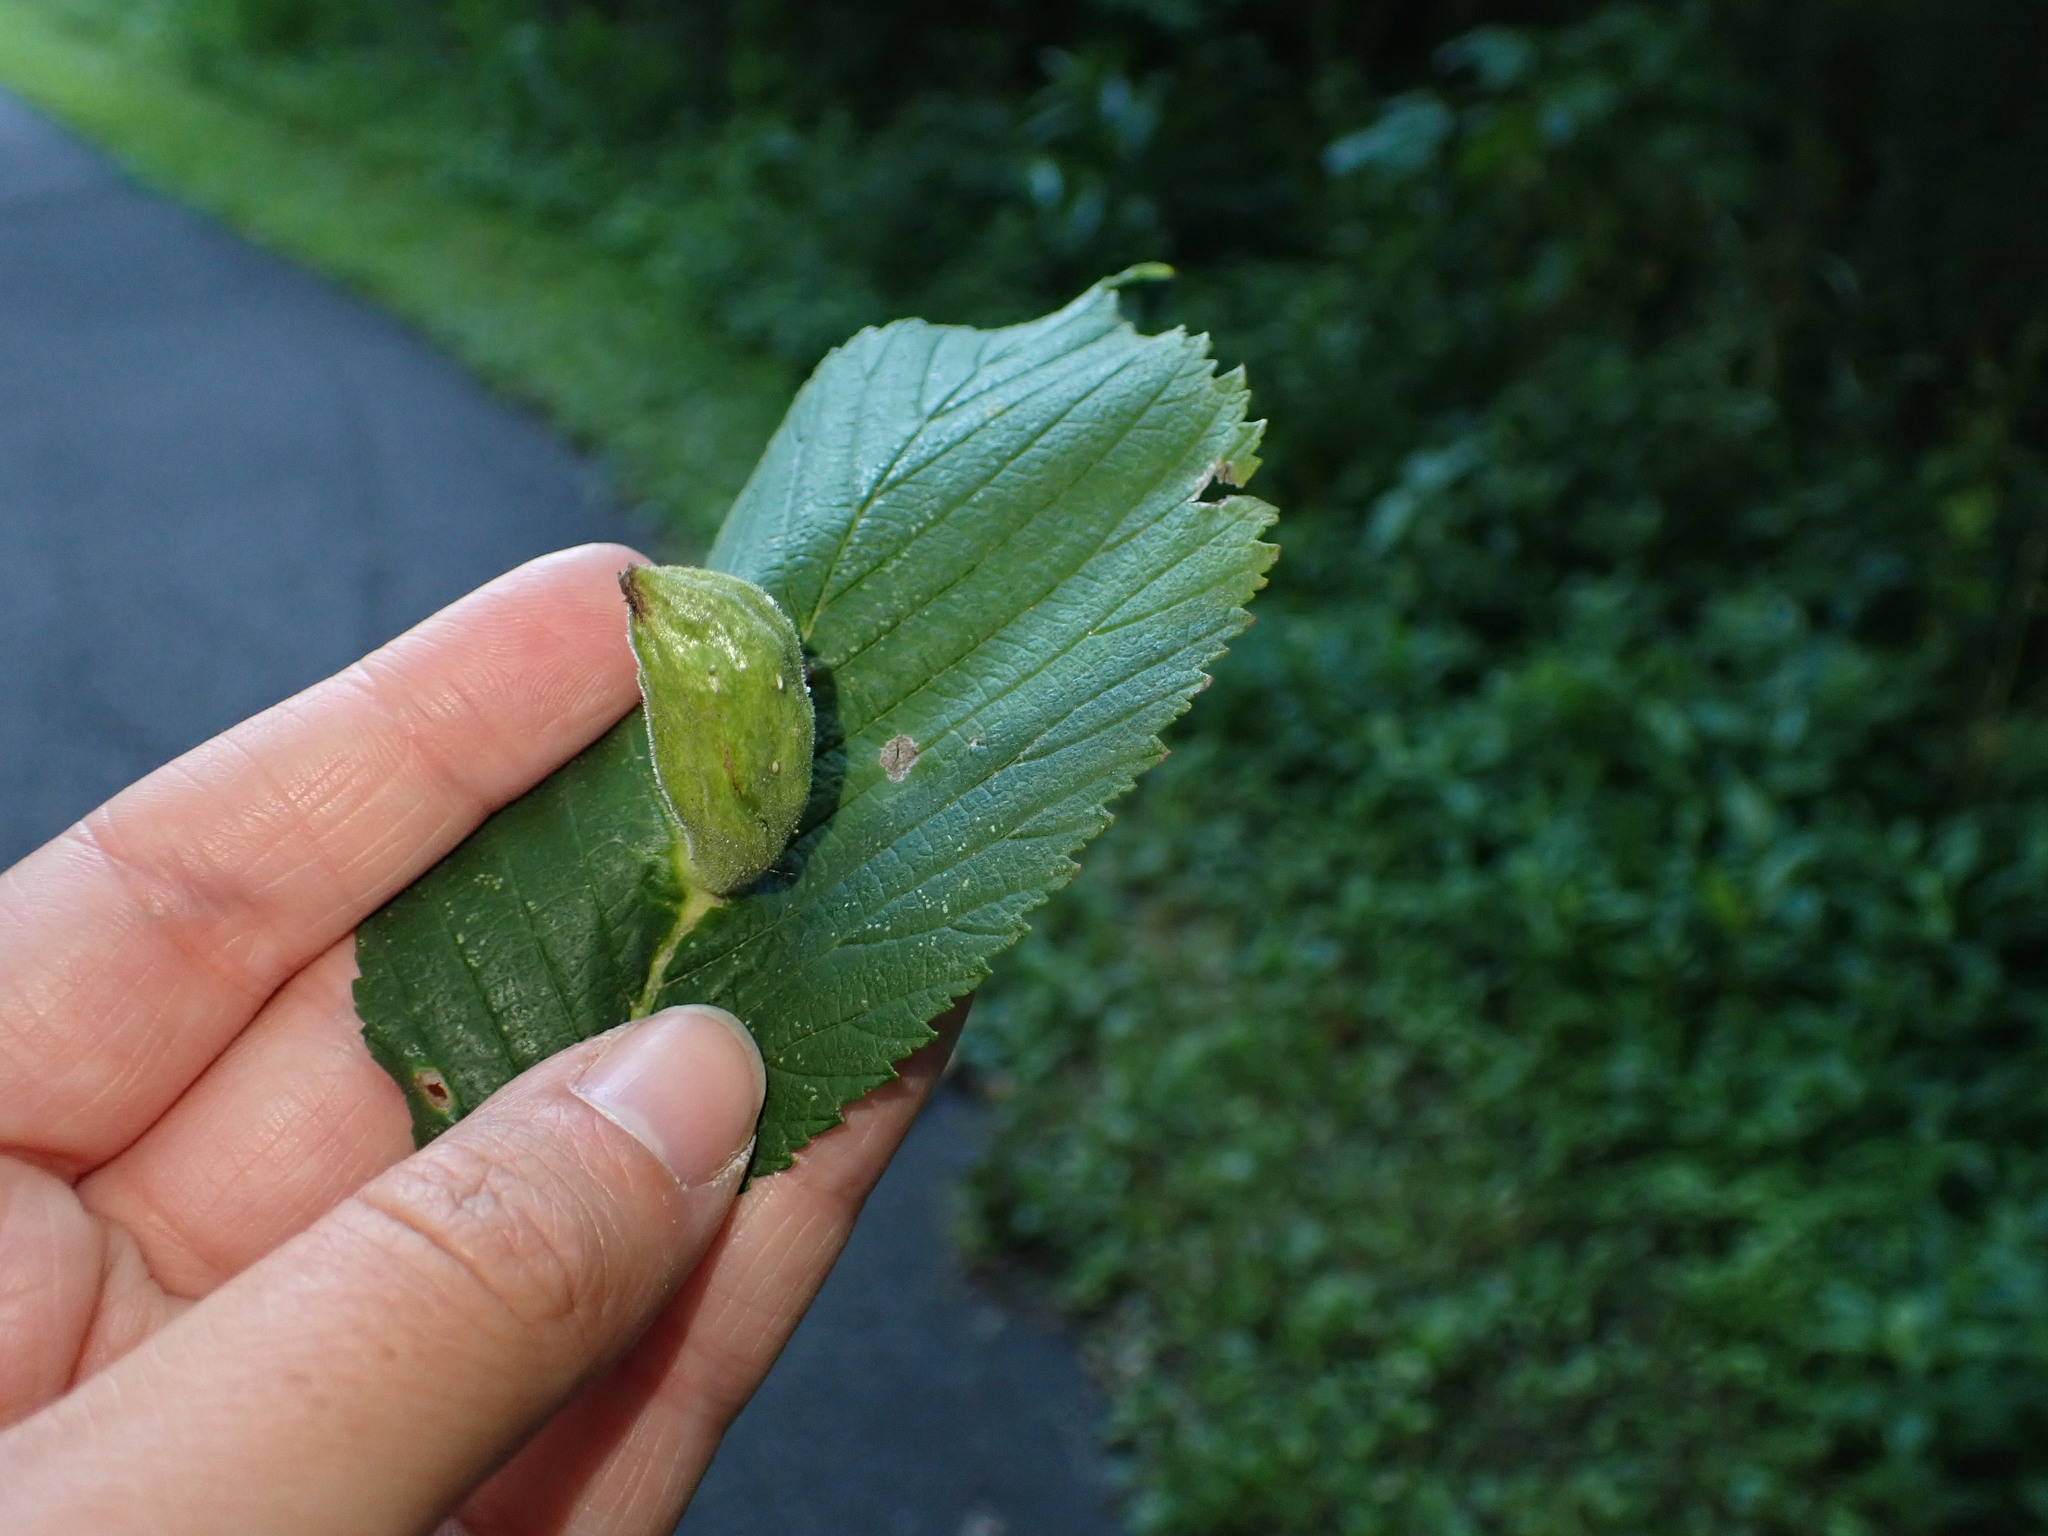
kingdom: Animalia
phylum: Arthropoda
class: Insecta
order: Hemiptera
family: Aphididae
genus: Kaltenbachiella
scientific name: Kaltenbachiella ulmifusa
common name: Elm pouchgall aphid
